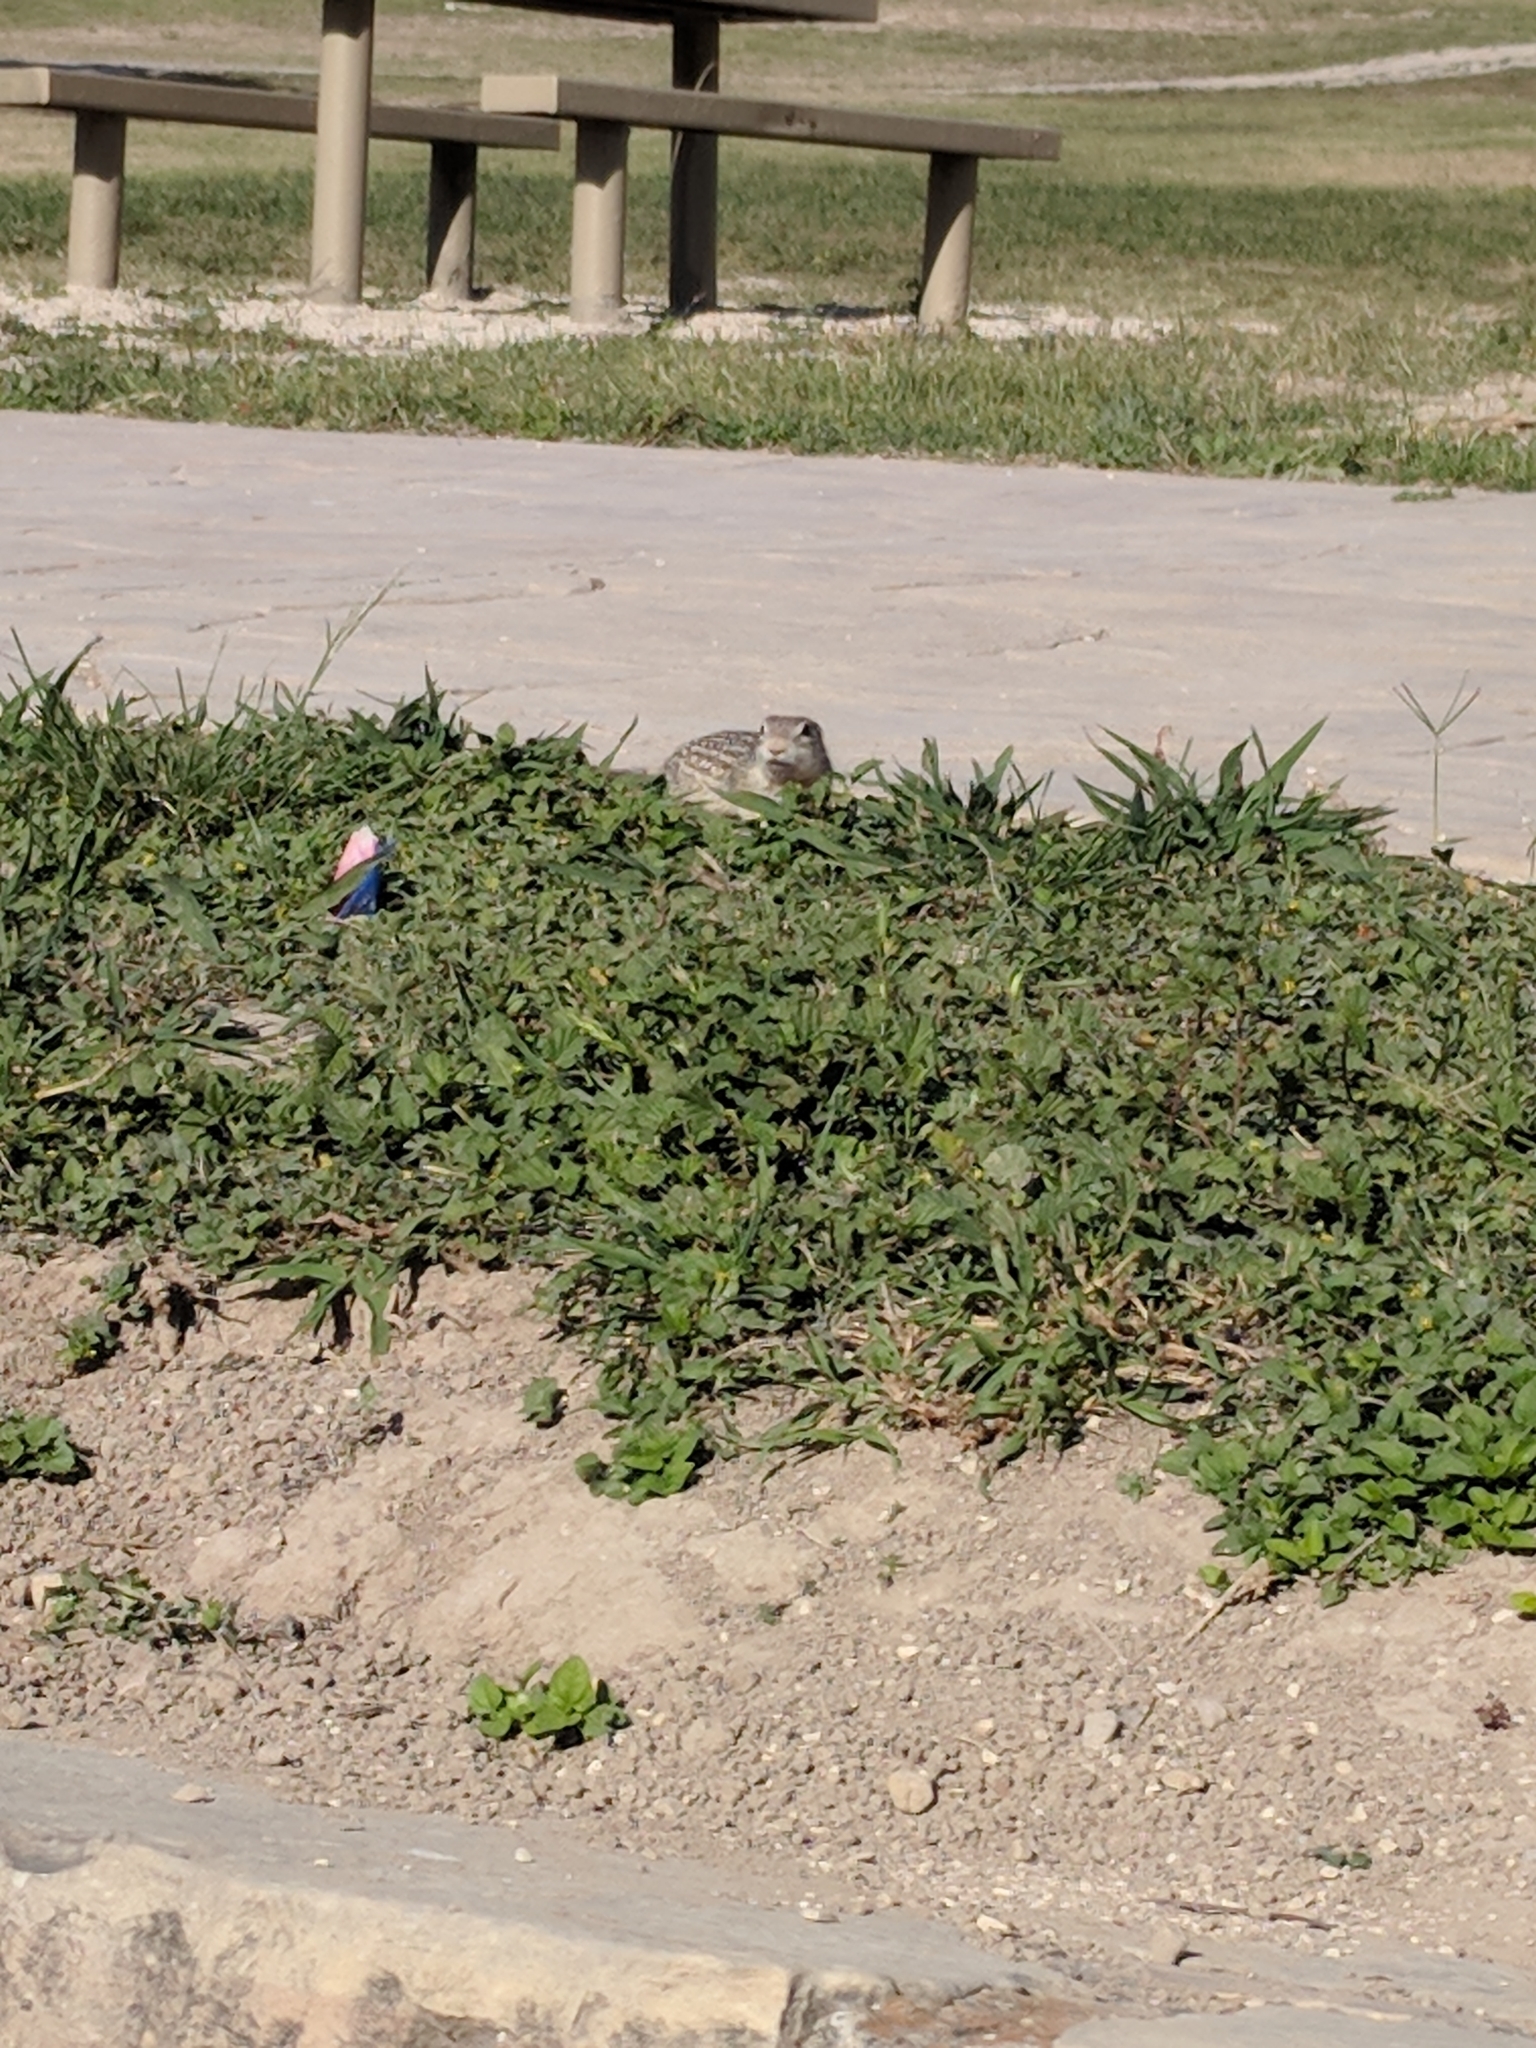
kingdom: Animalia
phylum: Chordata
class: Mammalia
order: Rodentia
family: Sciuridae
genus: Ictidomys
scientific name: Ictidomys parvidens
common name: Rio grande ground squirrel
